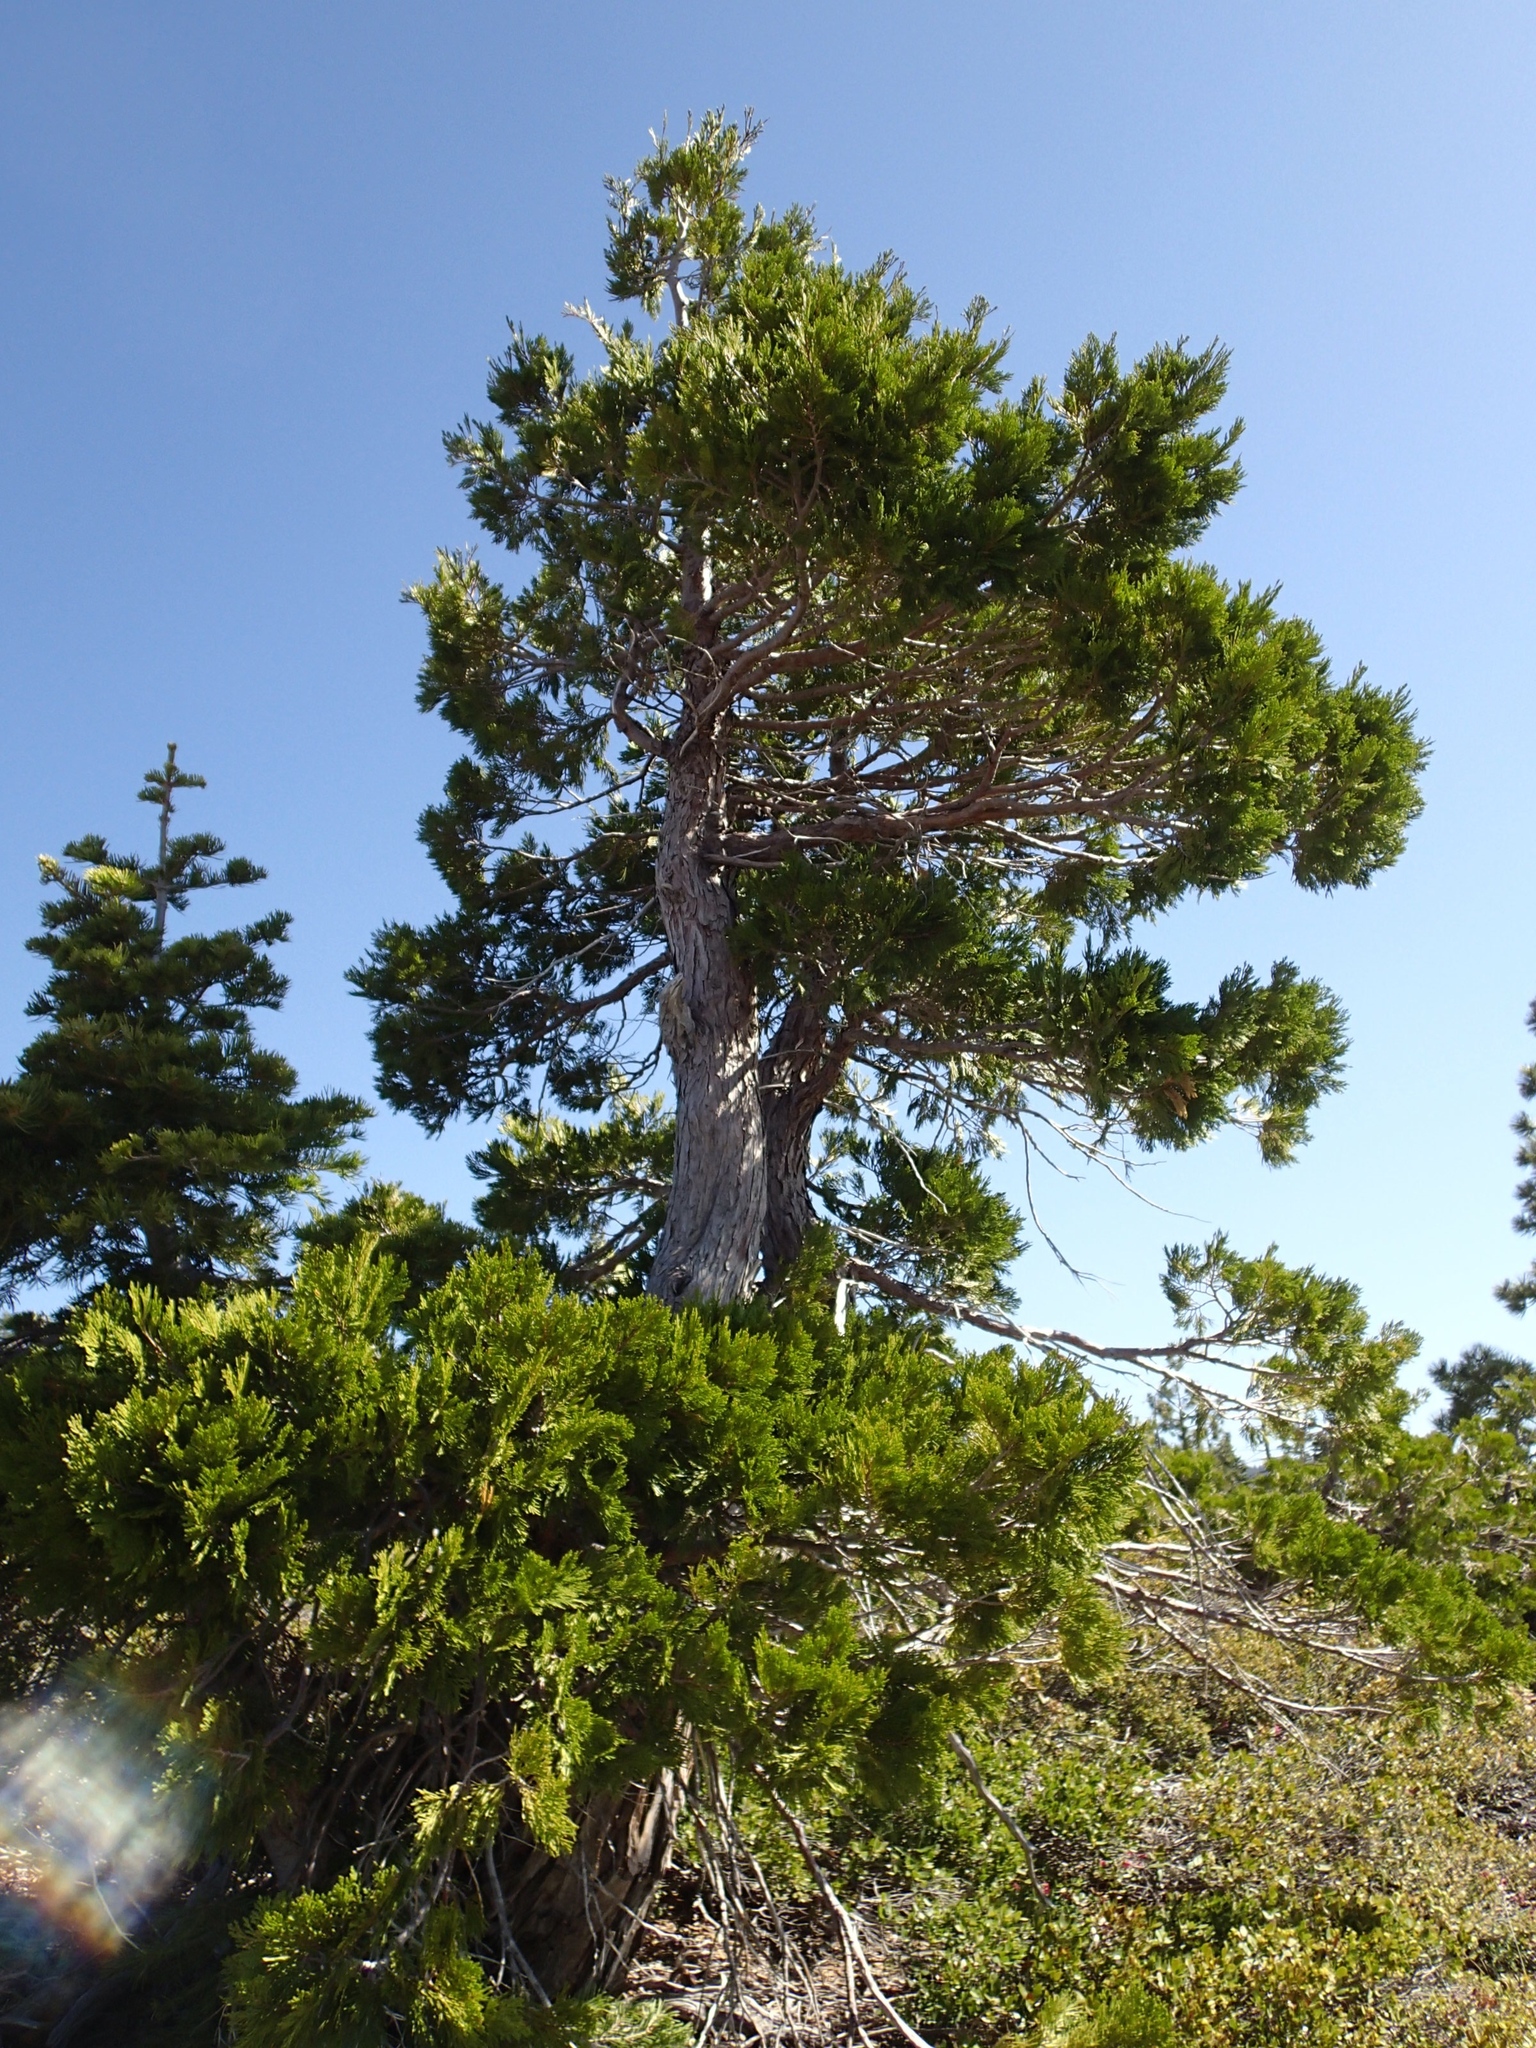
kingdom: Plantae
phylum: Tracheophyta
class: Pinopsida
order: Pinales
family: Cupressaceae
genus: Calocedrus
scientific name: Calocedrus decurrens
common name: Californian incense-cedar
